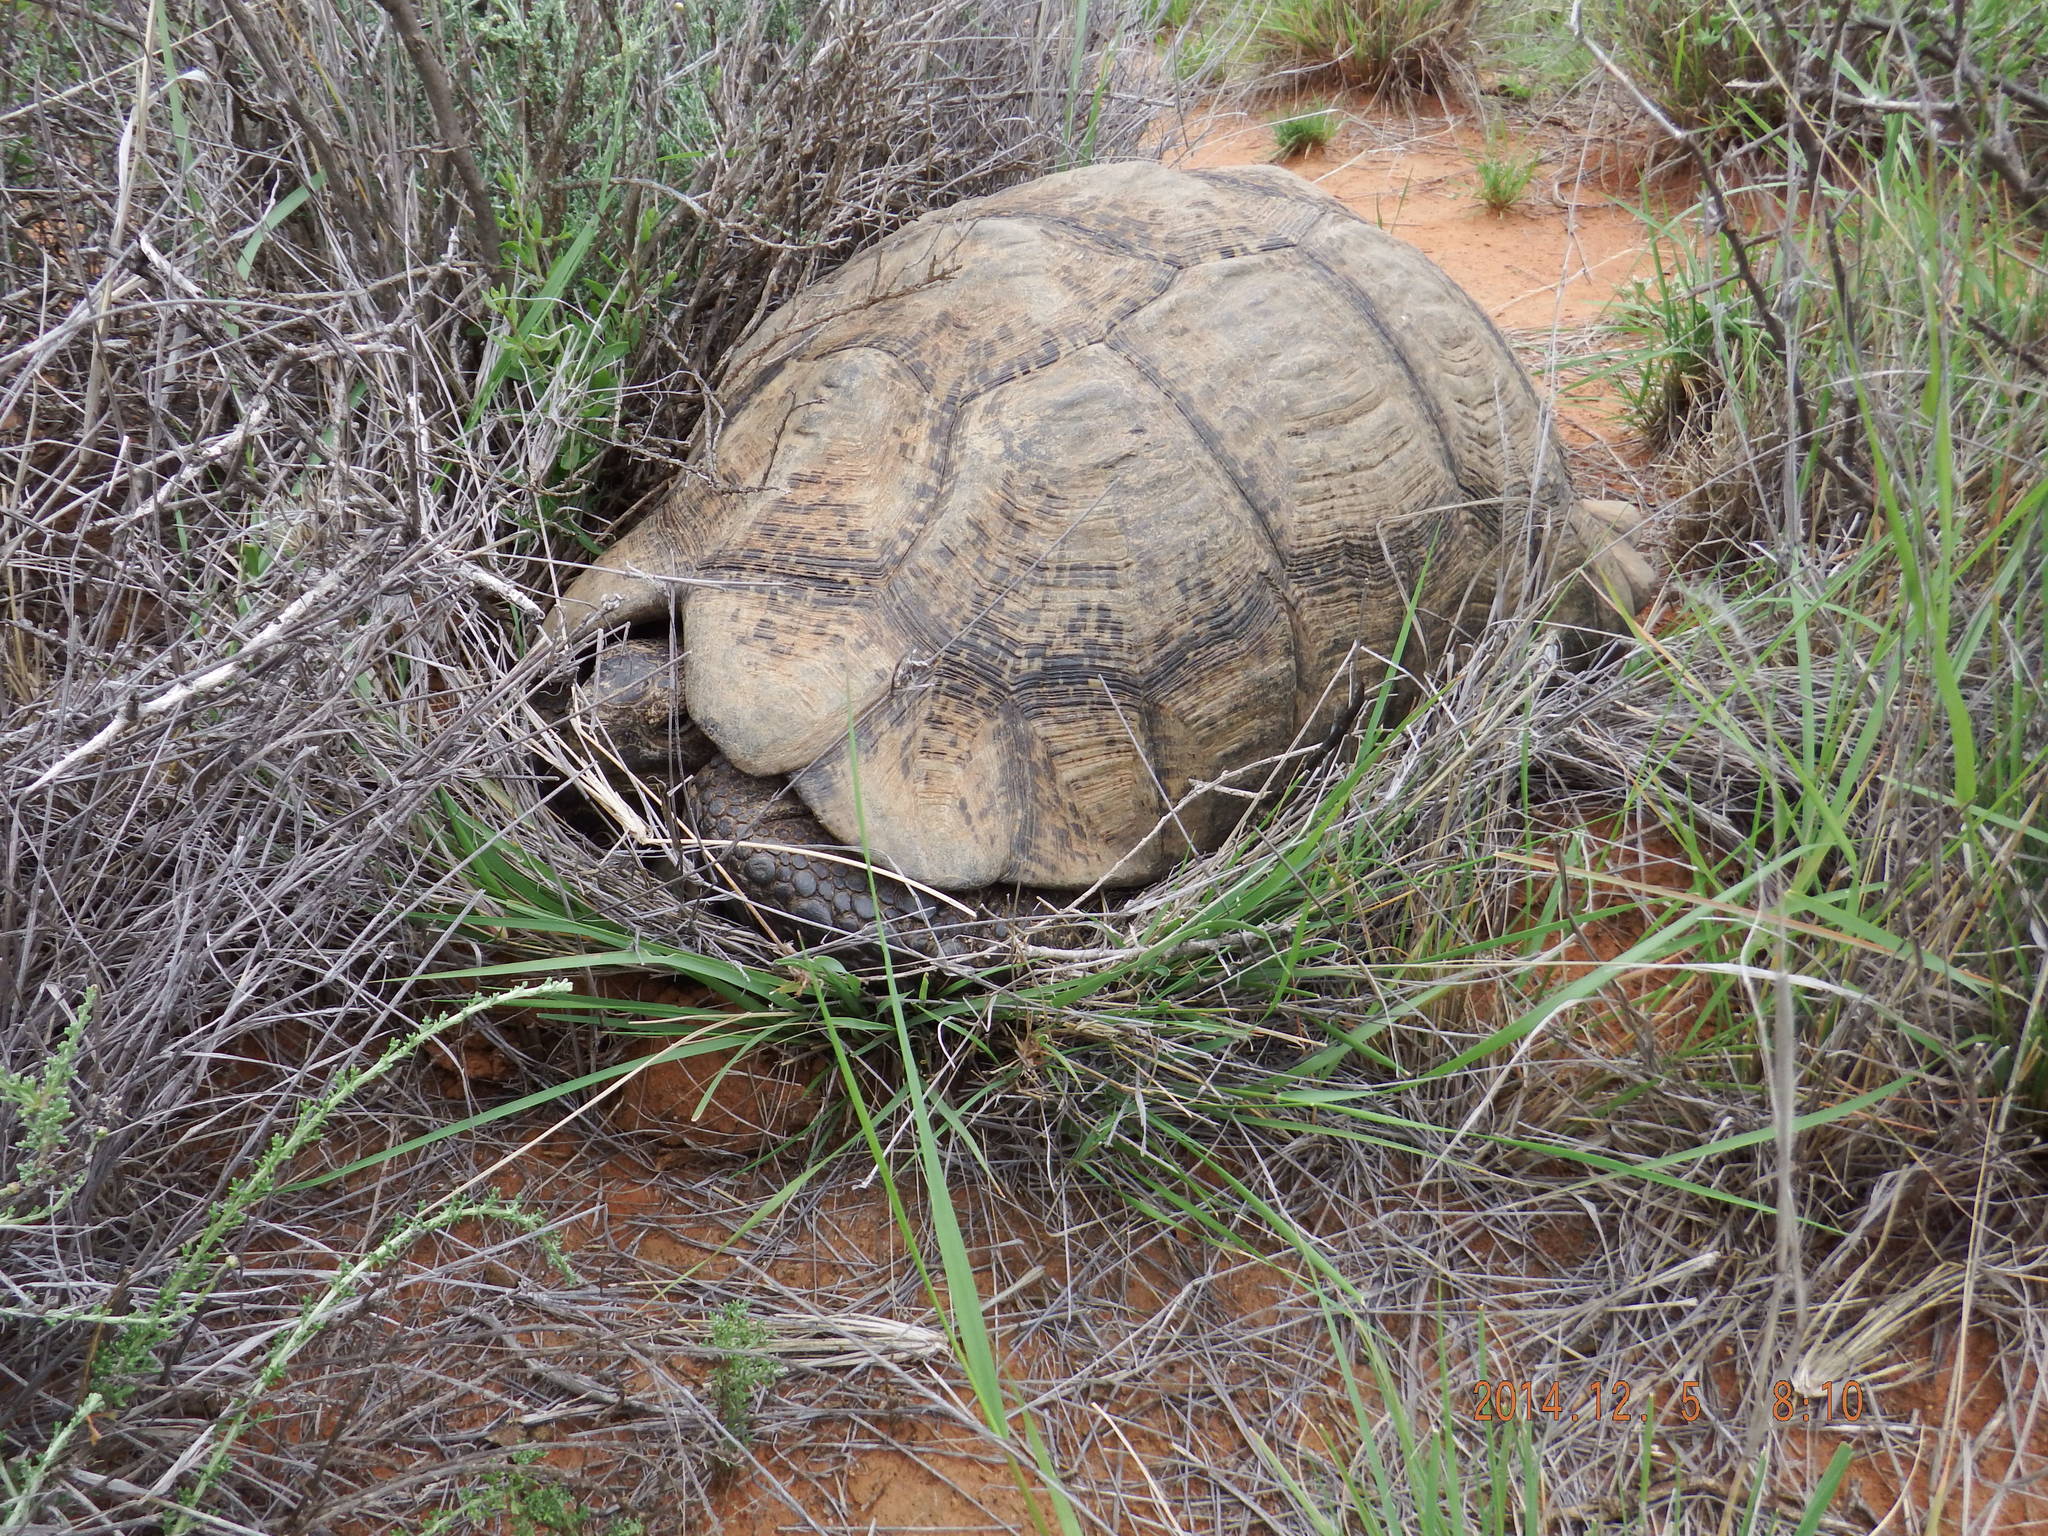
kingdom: Animalia
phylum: Chordata
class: Testudines
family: Testudinidae
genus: Stigmochelys
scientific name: Stigmochelys pardalis
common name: Leopard tortoise
